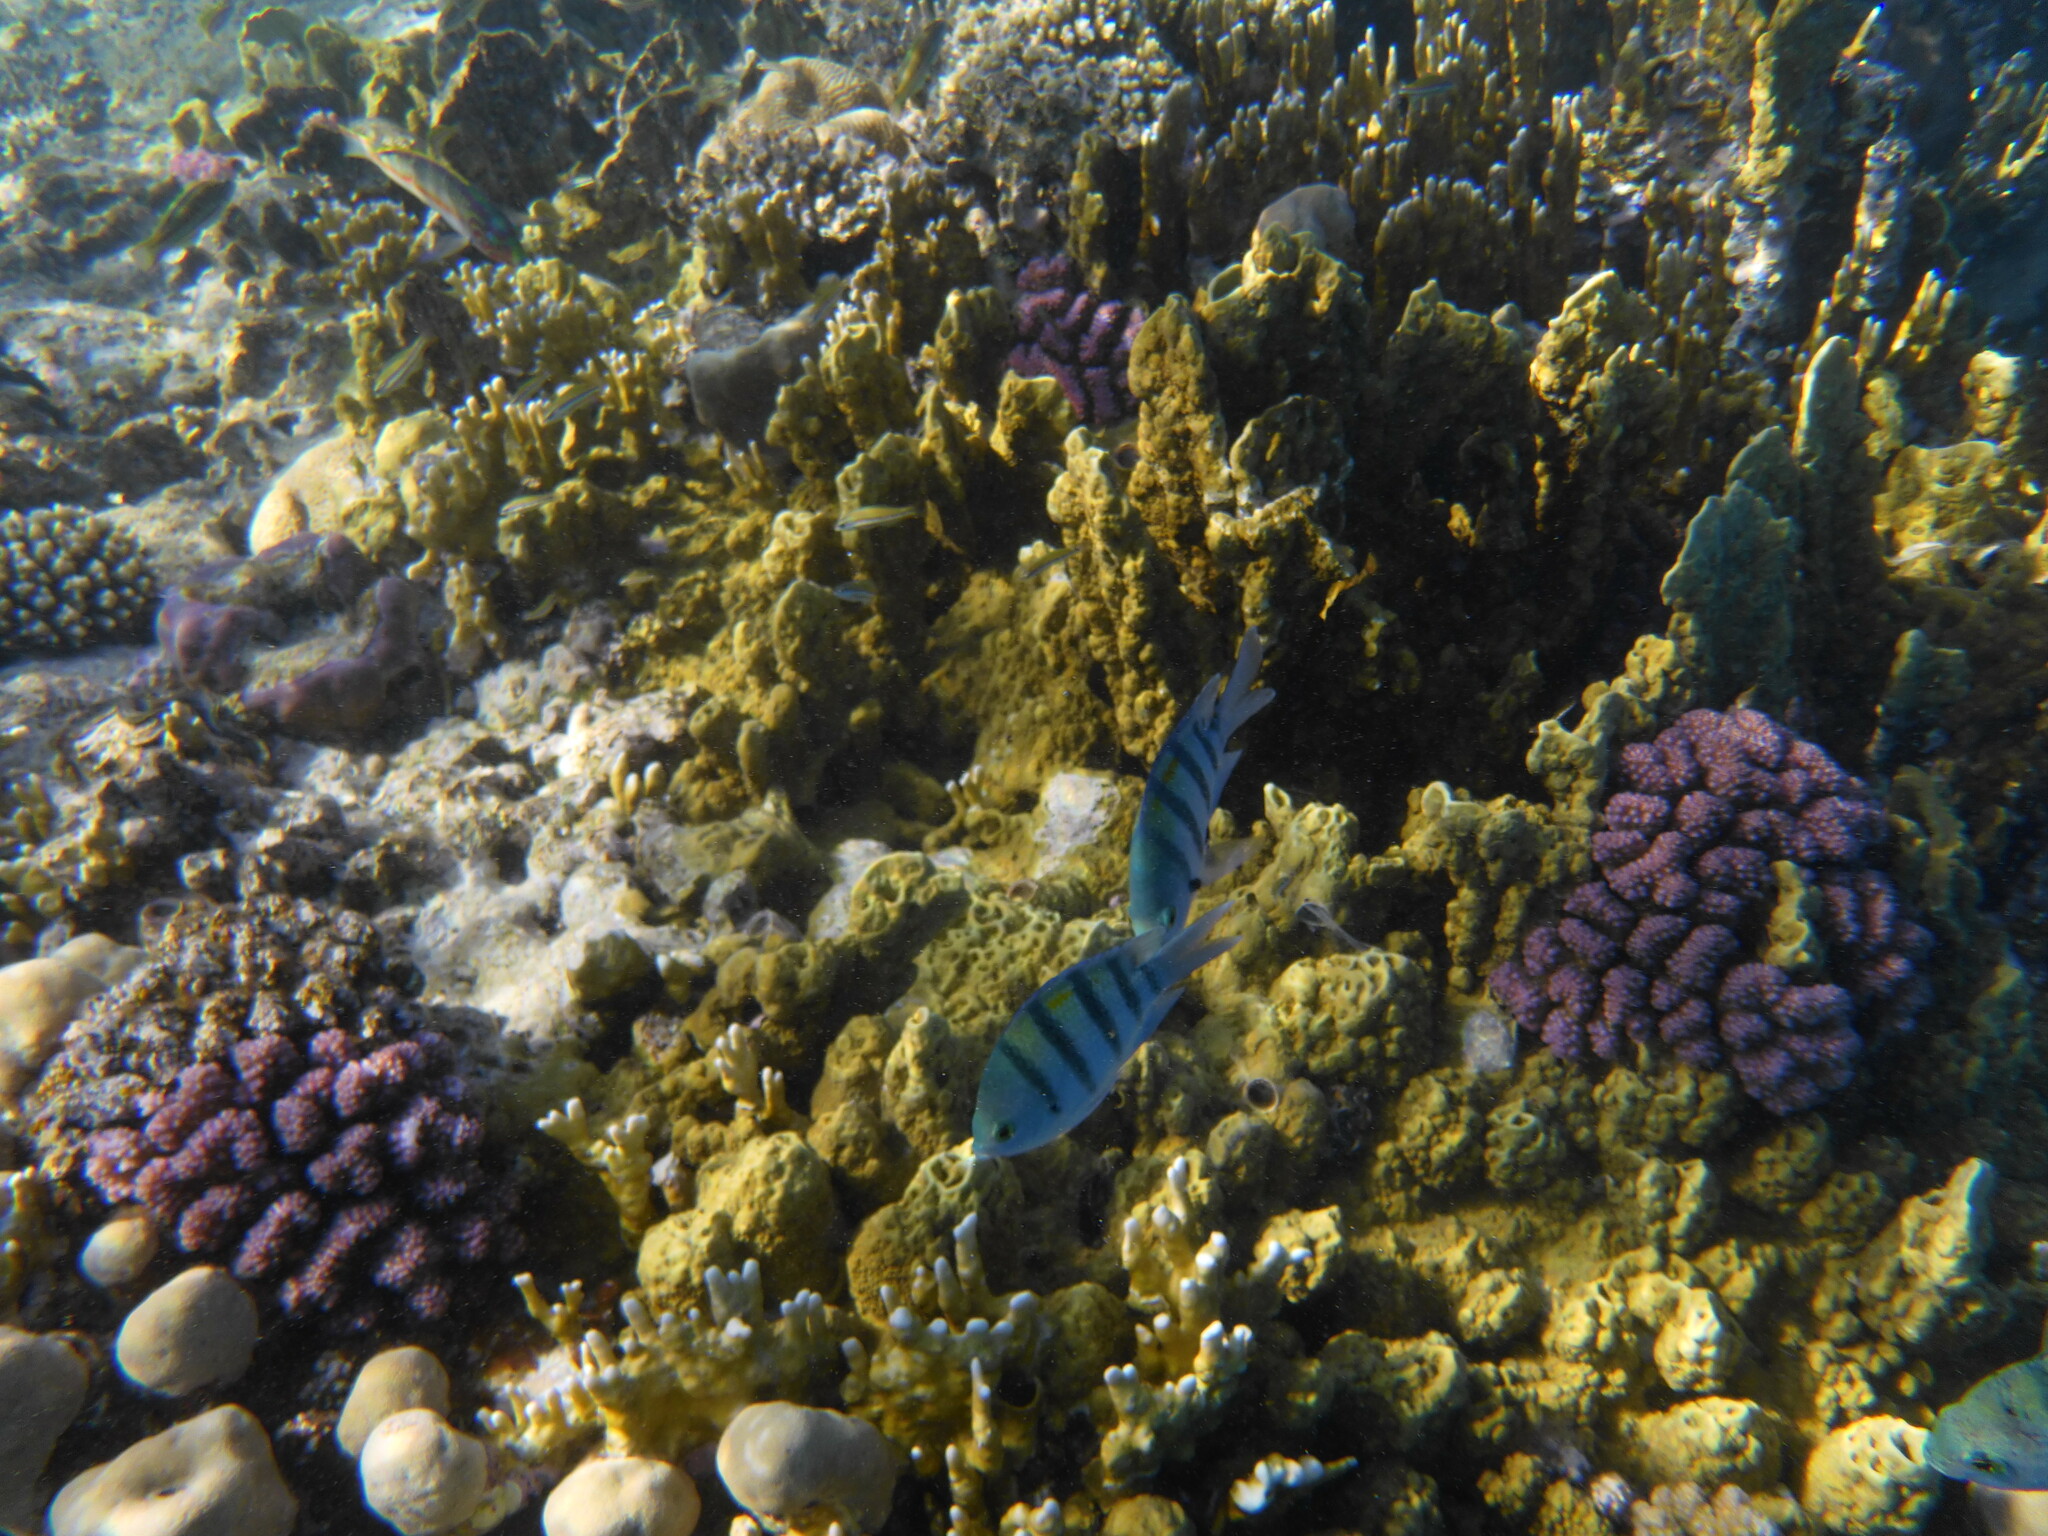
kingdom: Animalia
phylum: Chordata
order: Perciformes
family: Pomacentridae
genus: Abudefduf
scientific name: Abudefduf vaigiensis
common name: Indo-pacific sergeant
